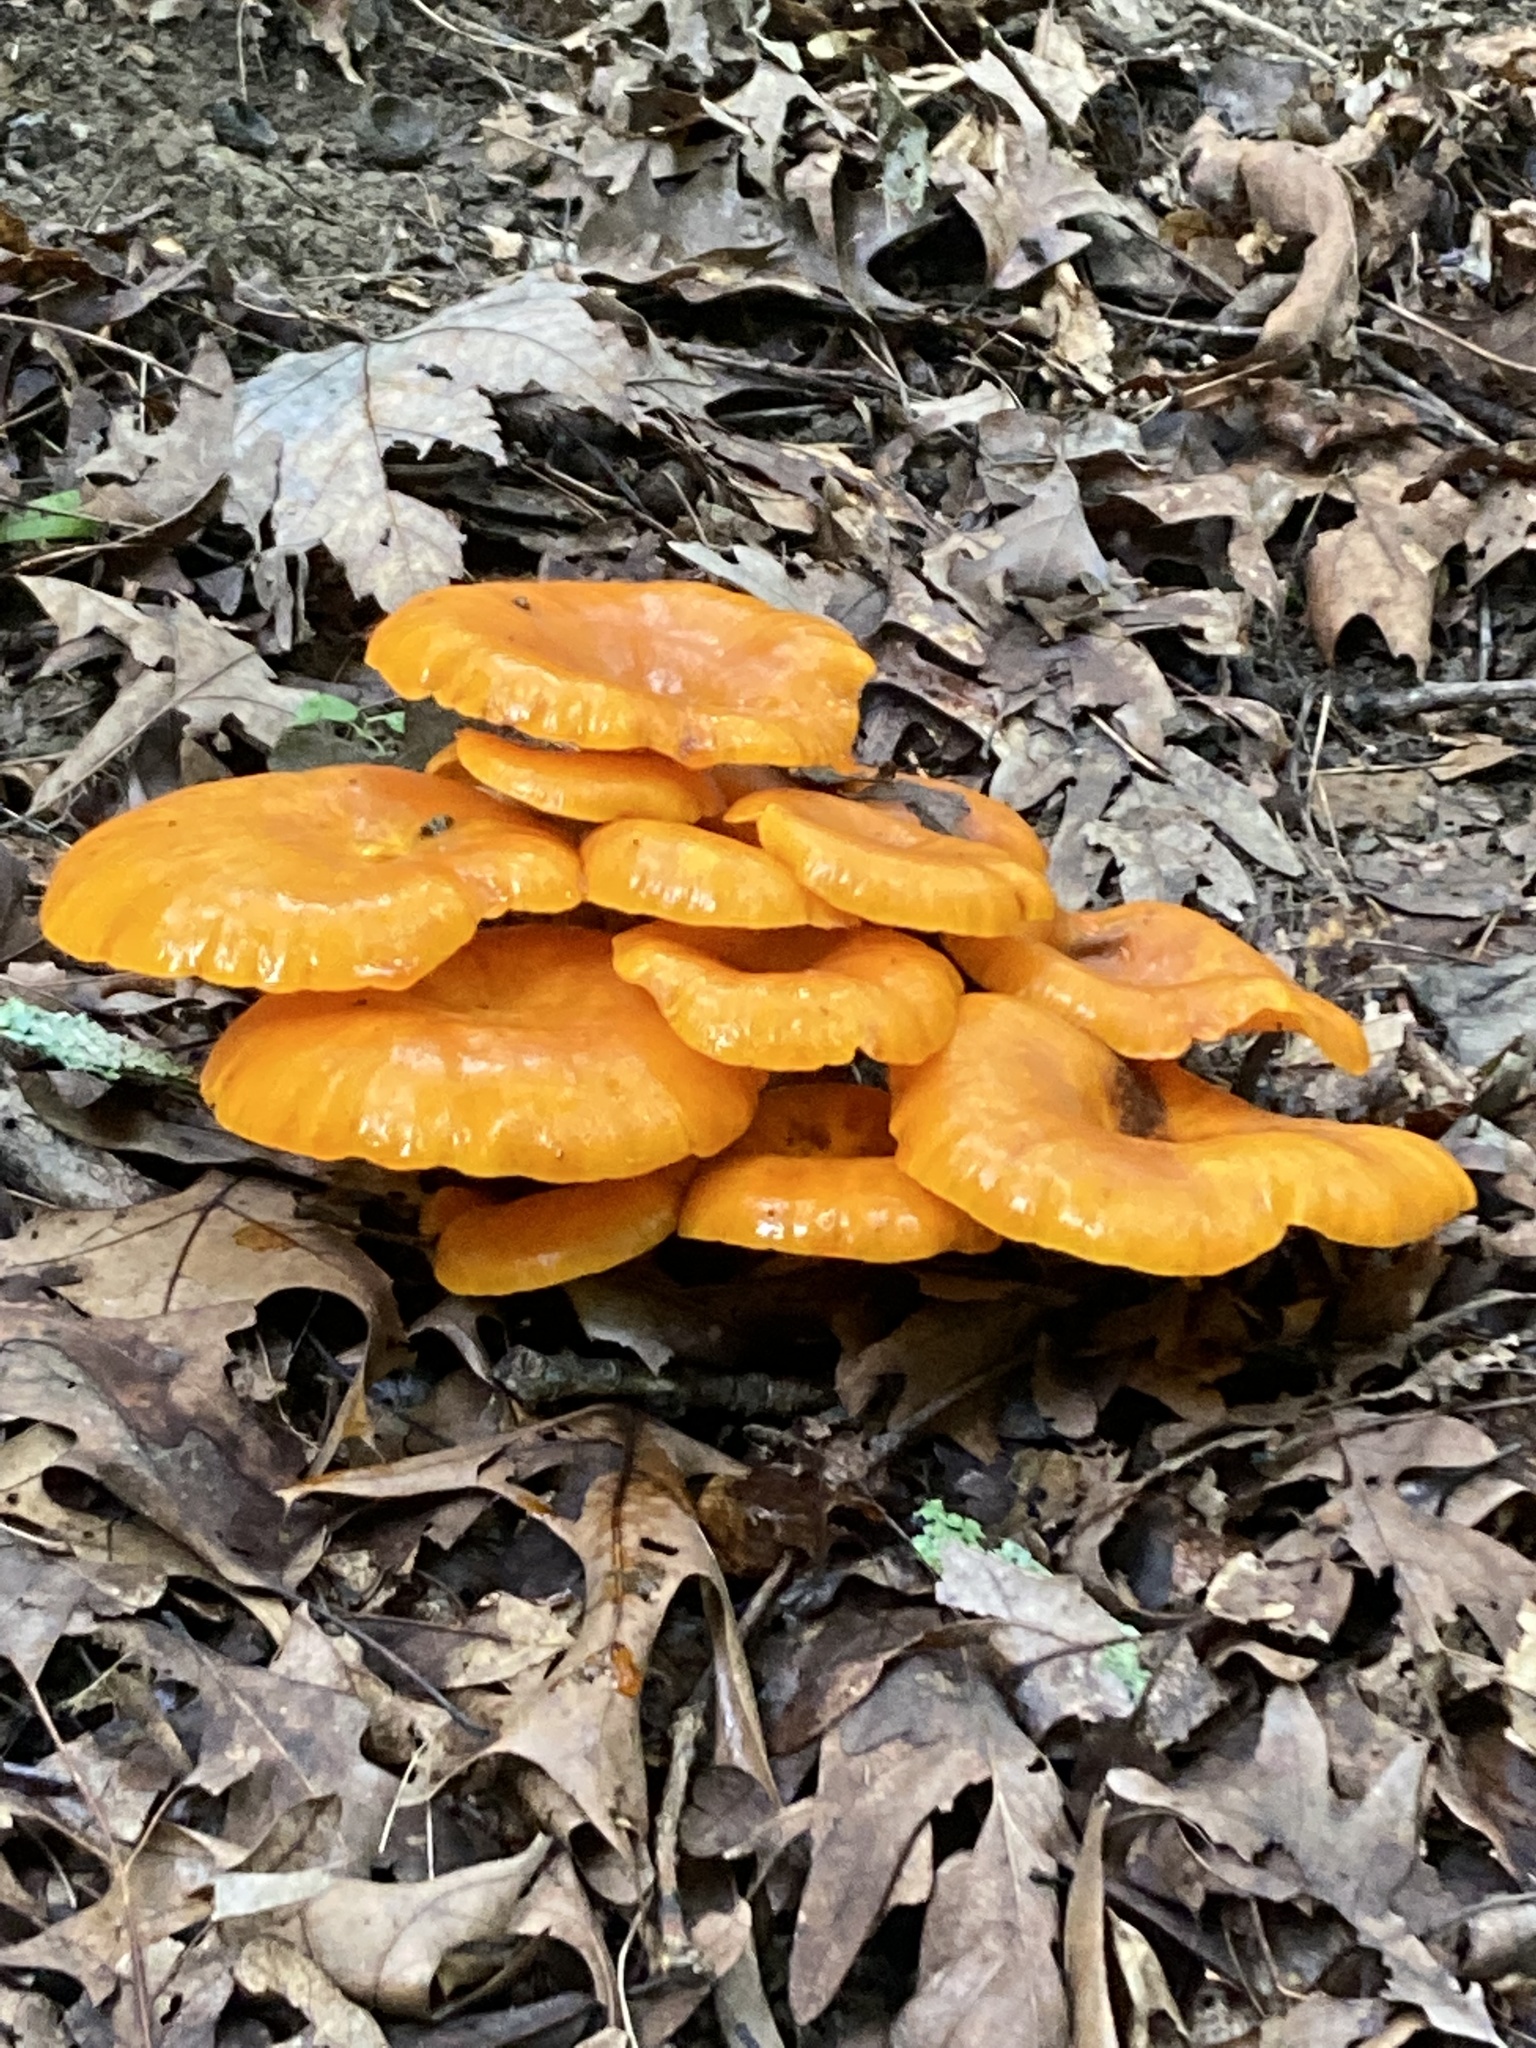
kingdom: Fungi
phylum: Basidiomycota
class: Agaricomycetes
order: Agaricales
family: Omphalotaceae
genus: Omphalotus
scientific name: Omphalotus illudens
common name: Jack o lantern
